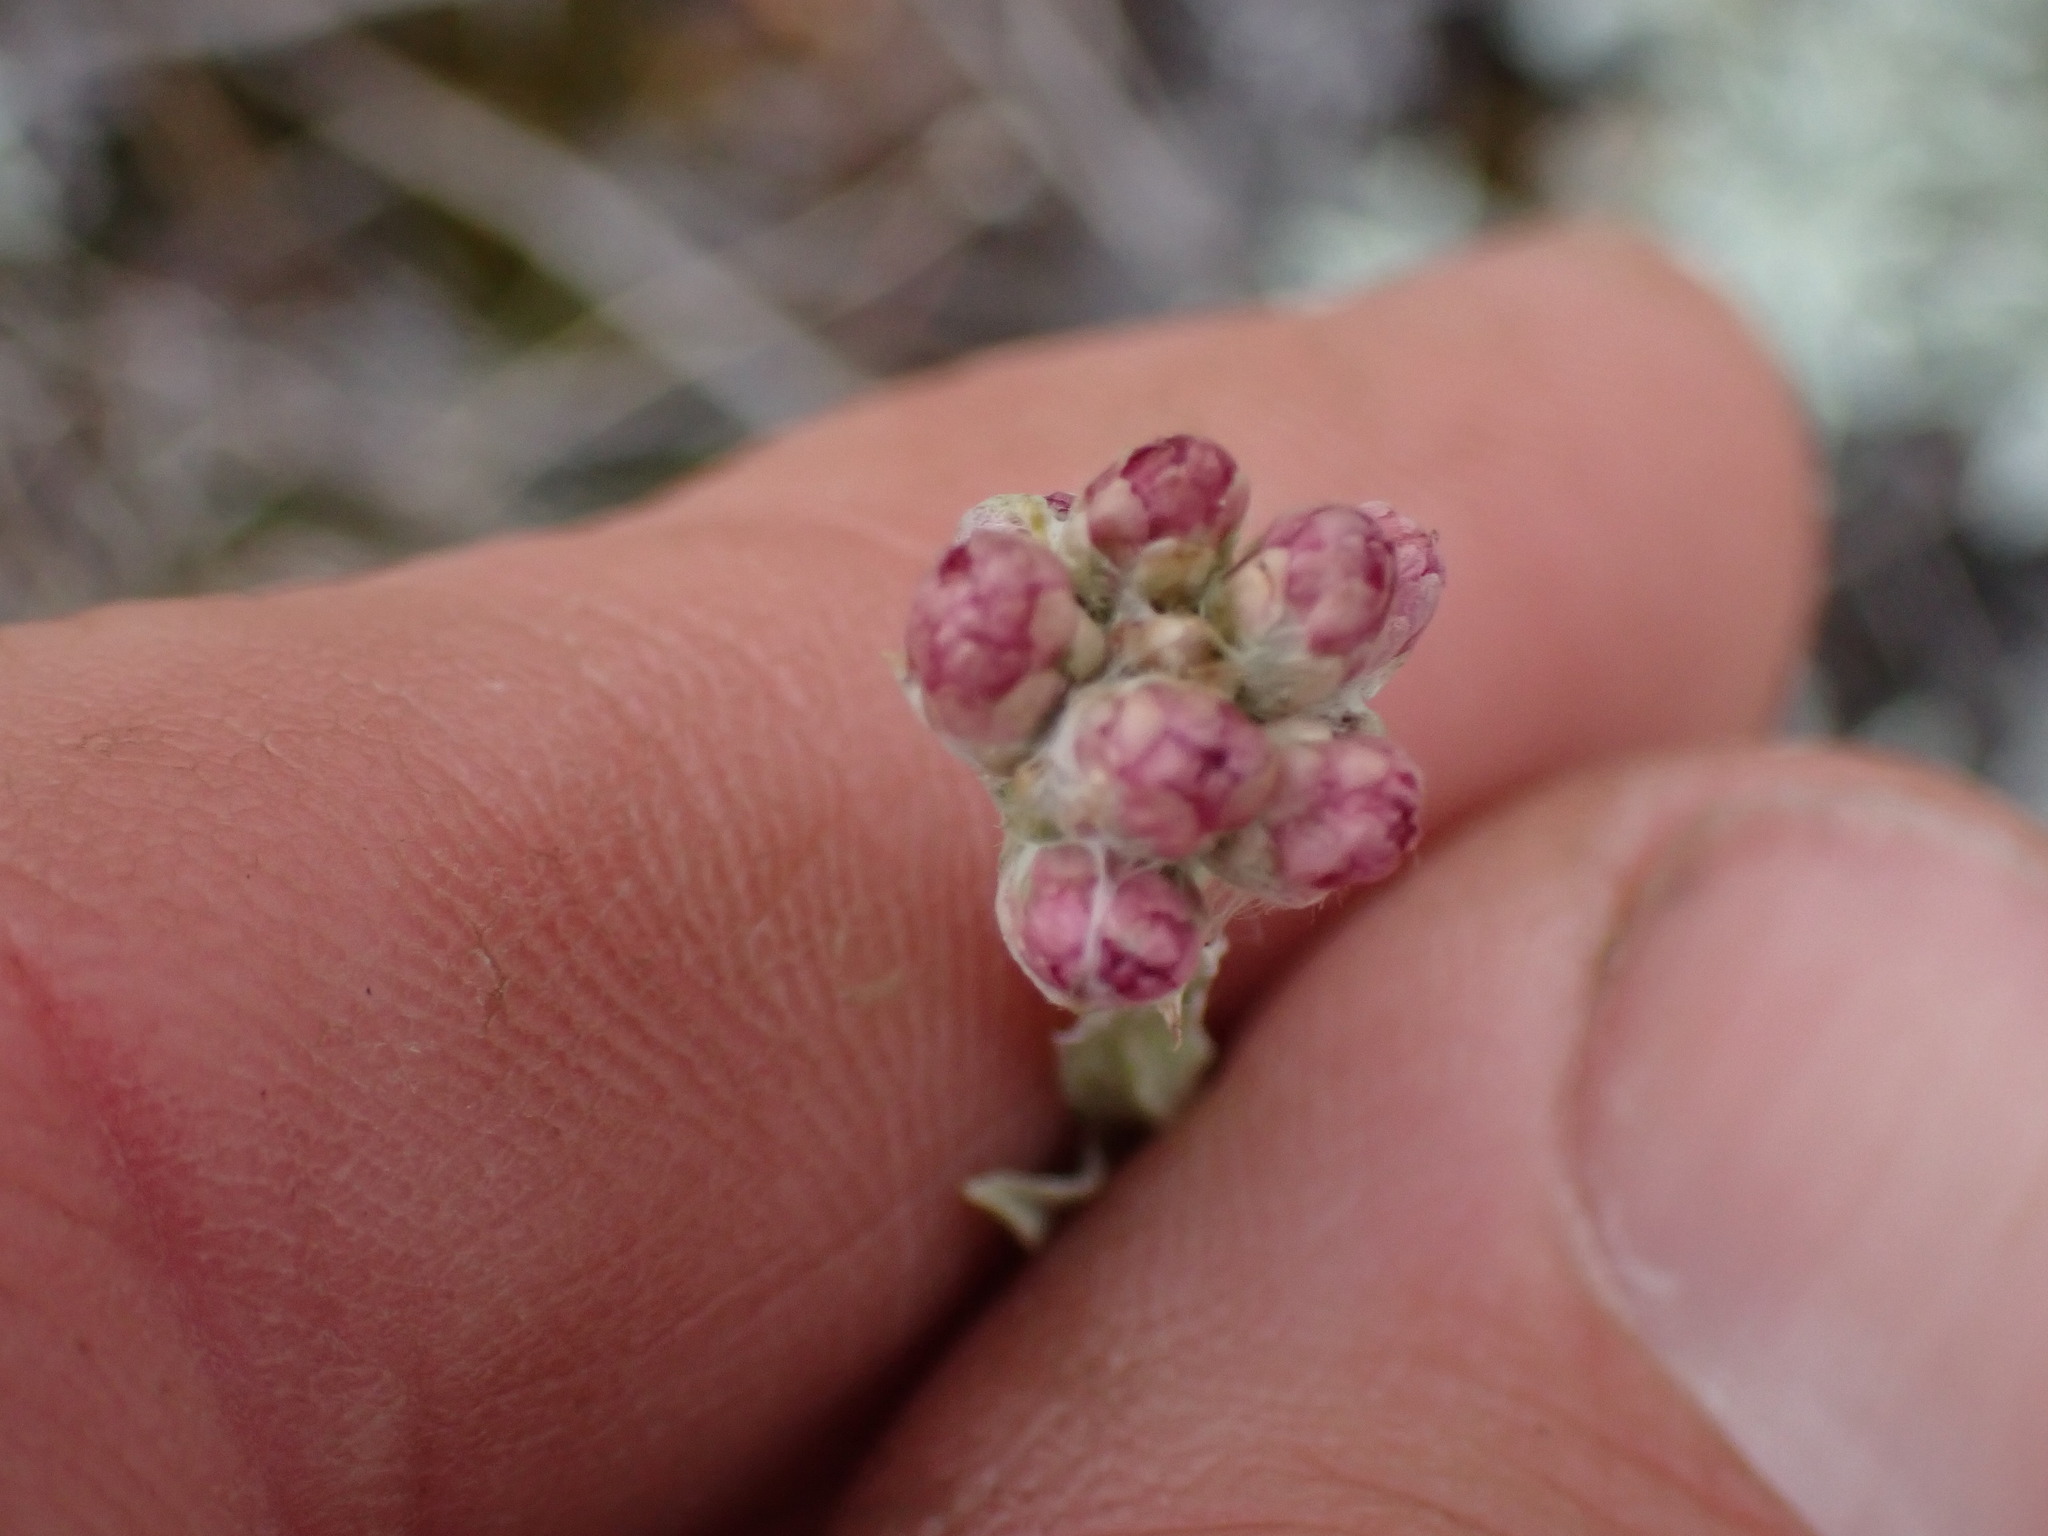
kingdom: Plantae
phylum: Tracheophyta
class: Magnoliopsida
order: Asterales
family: Asteraceae
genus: Antennaria
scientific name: Antennaria rosea
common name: Rosy pussytoes
